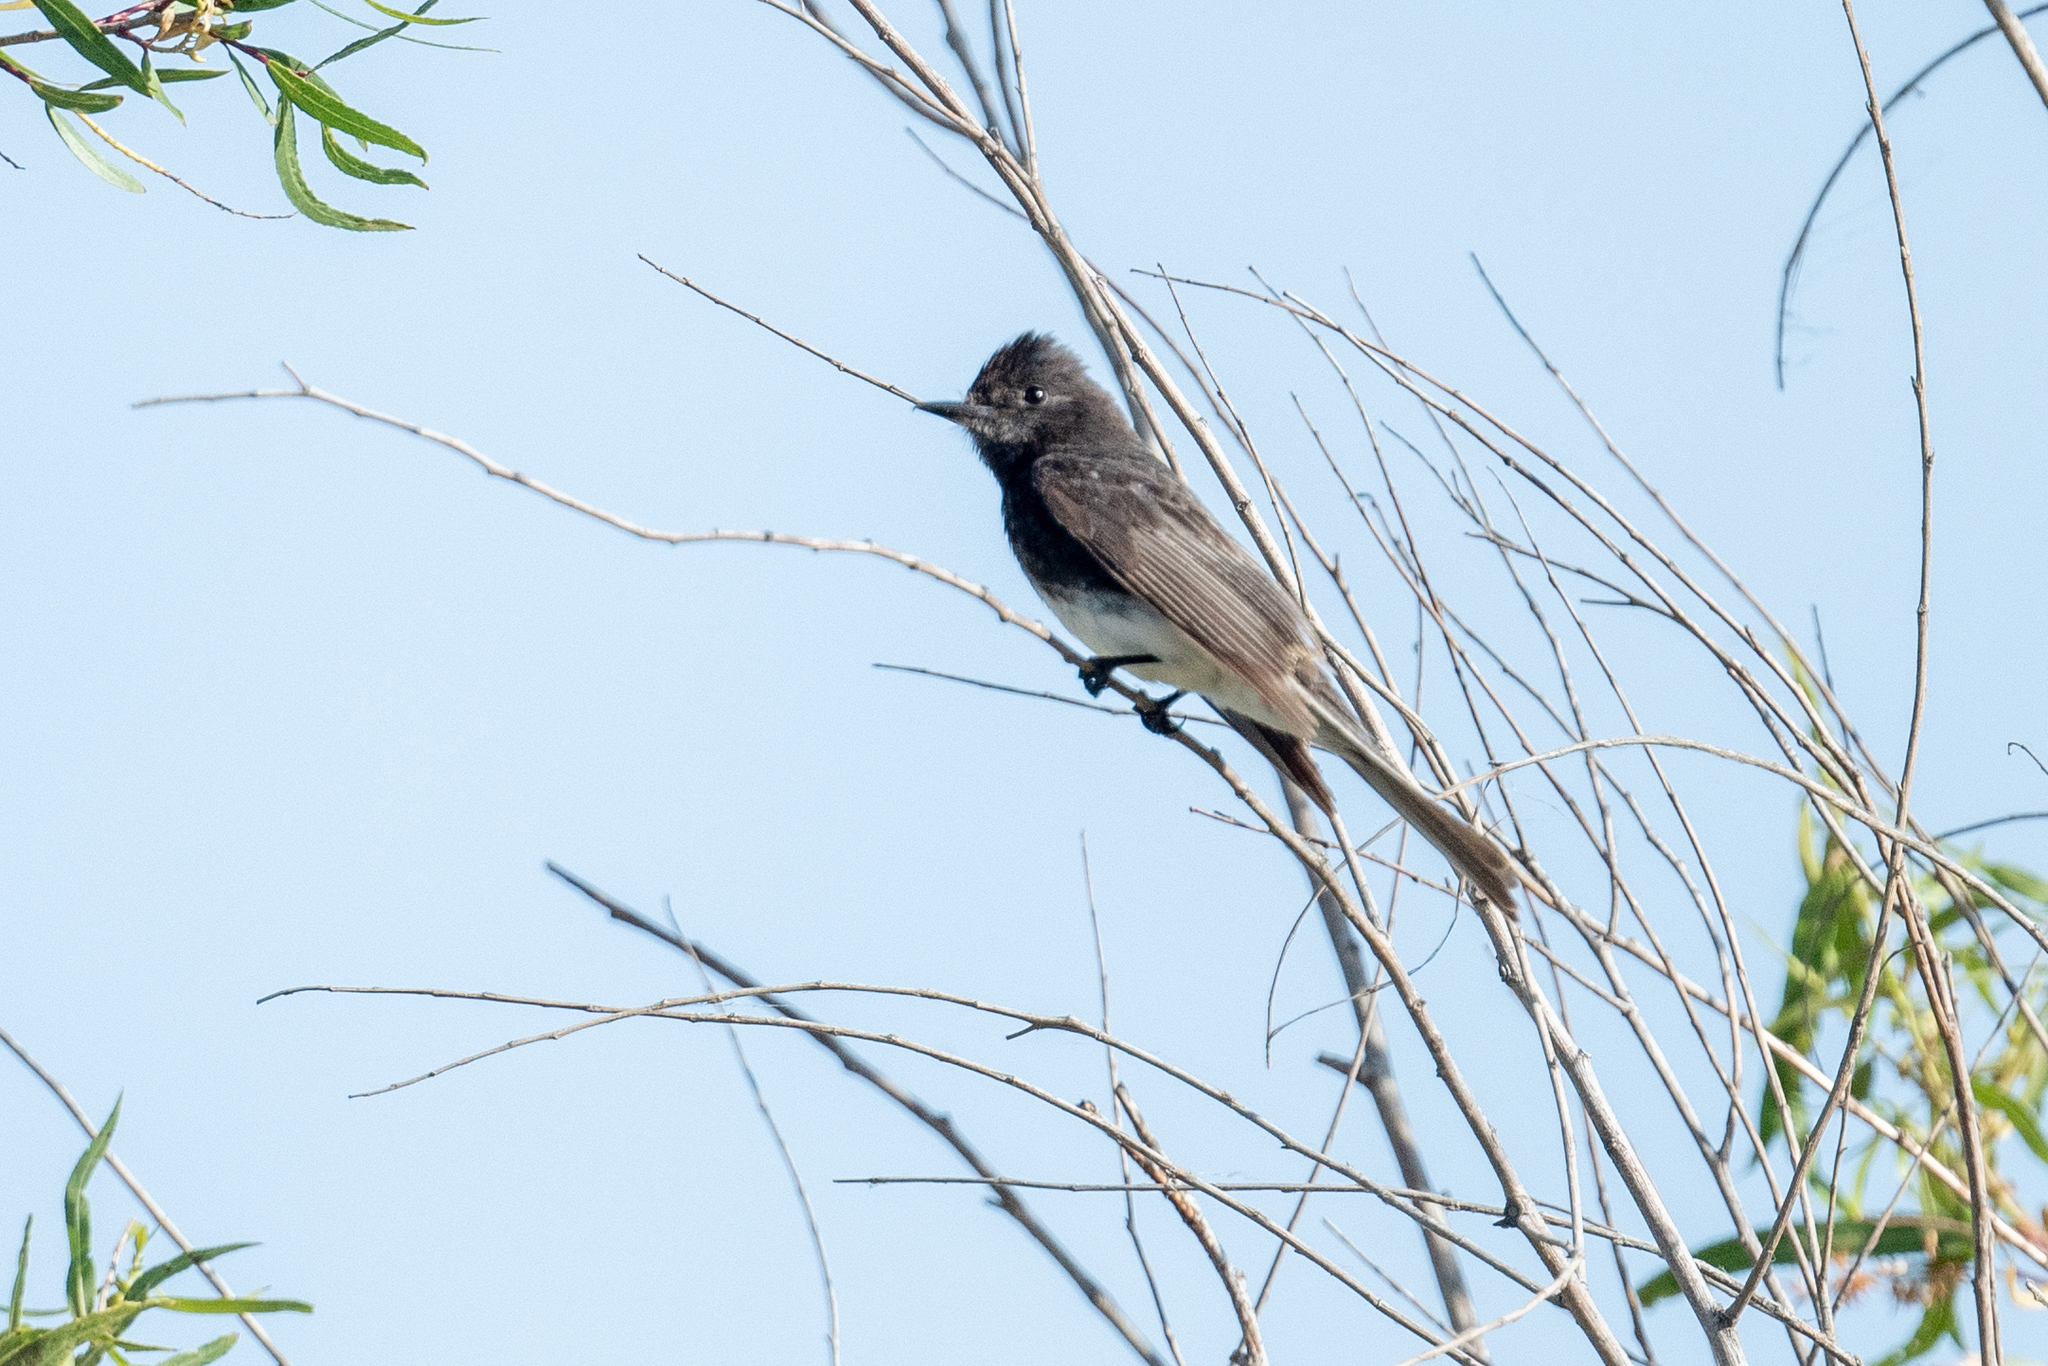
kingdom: Animalia
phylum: Chordata
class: Aves
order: Passeriformes
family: Tyrannidae
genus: Sayornis
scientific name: Sayornis nigricans
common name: Black phoebe
